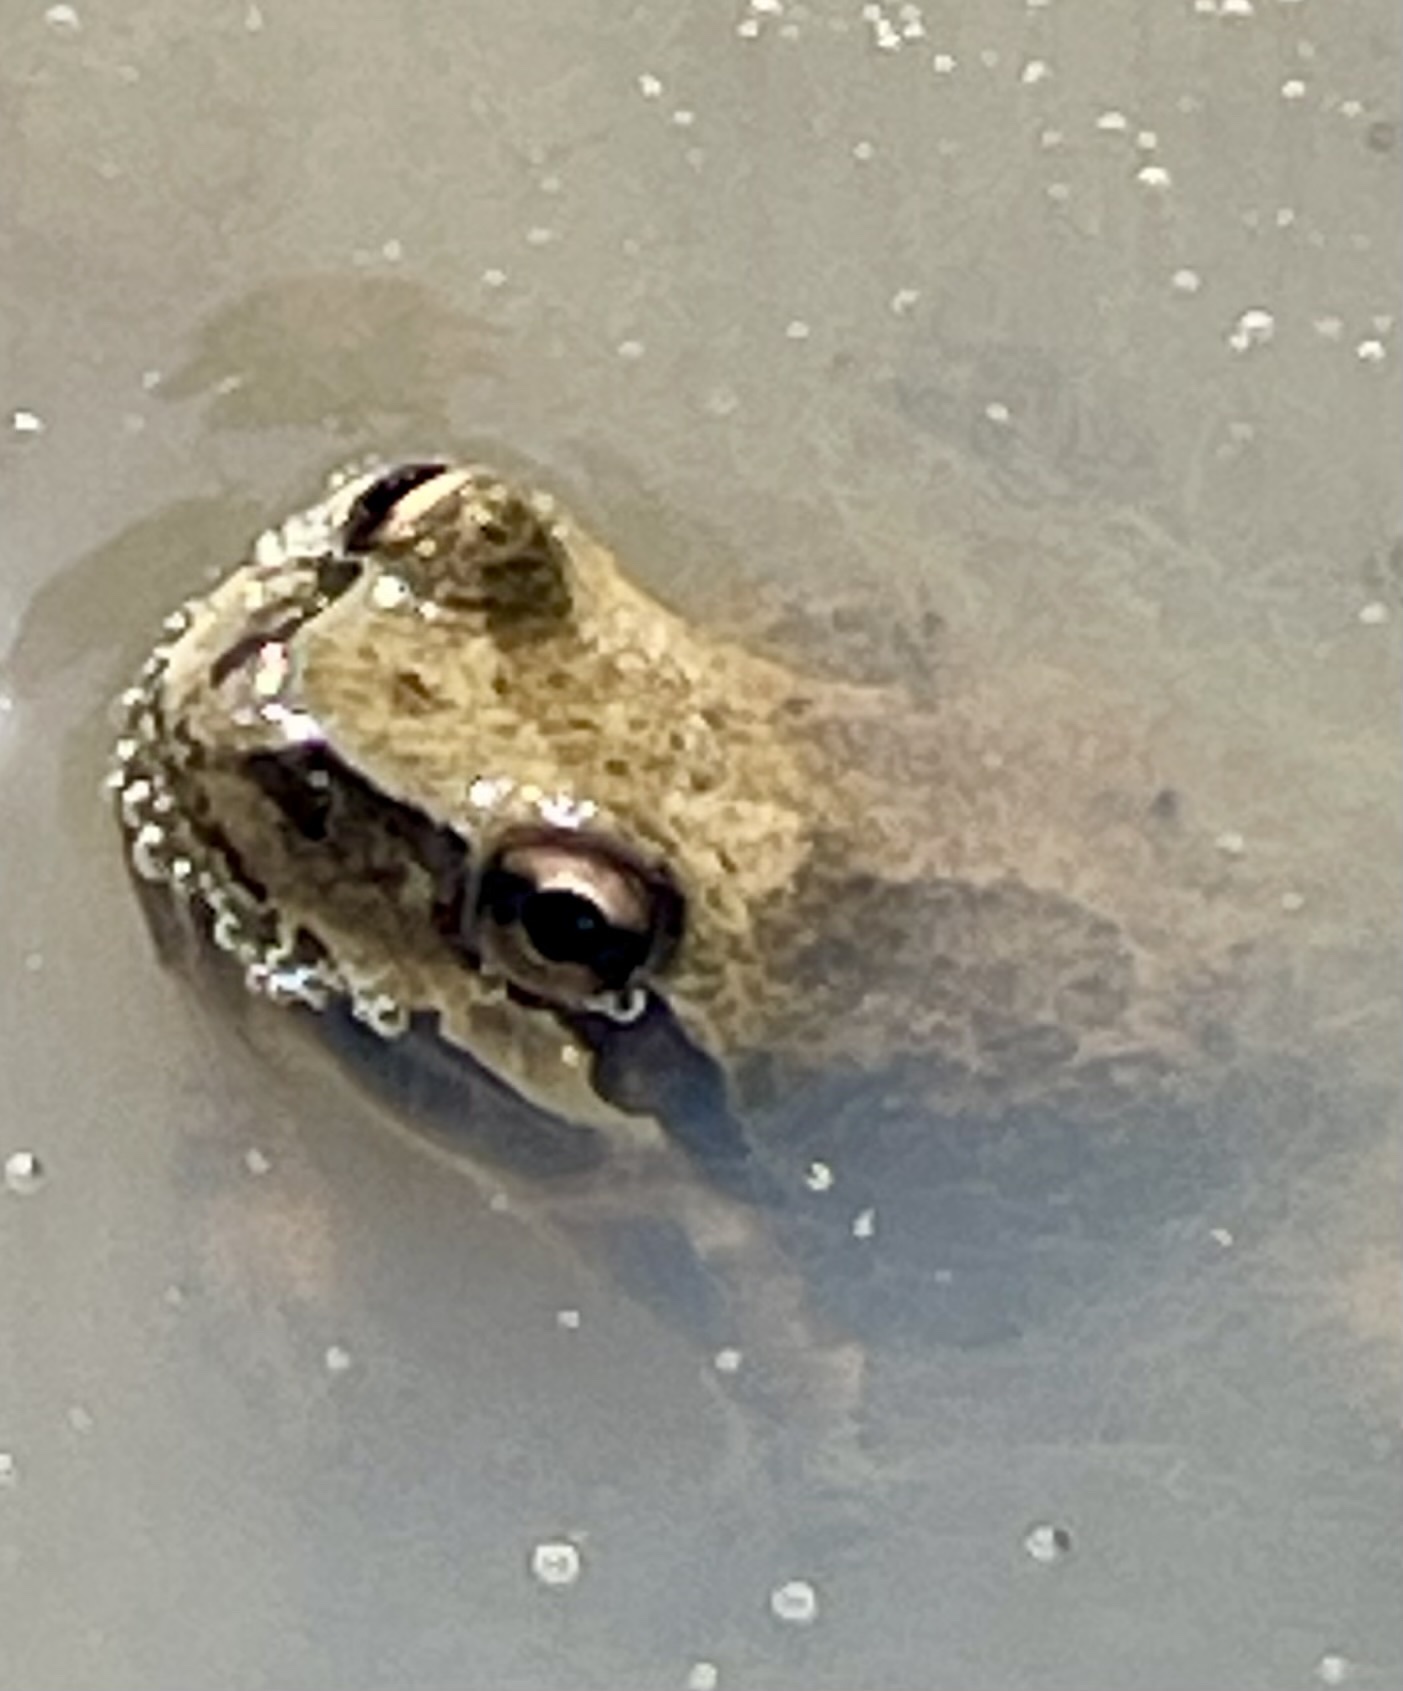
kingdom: Animalia
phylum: Chordata
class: Amphibia
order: Anura
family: Hylidae
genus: Pseudacris
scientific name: Pseudacris regilla
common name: Pacific chorus frog
